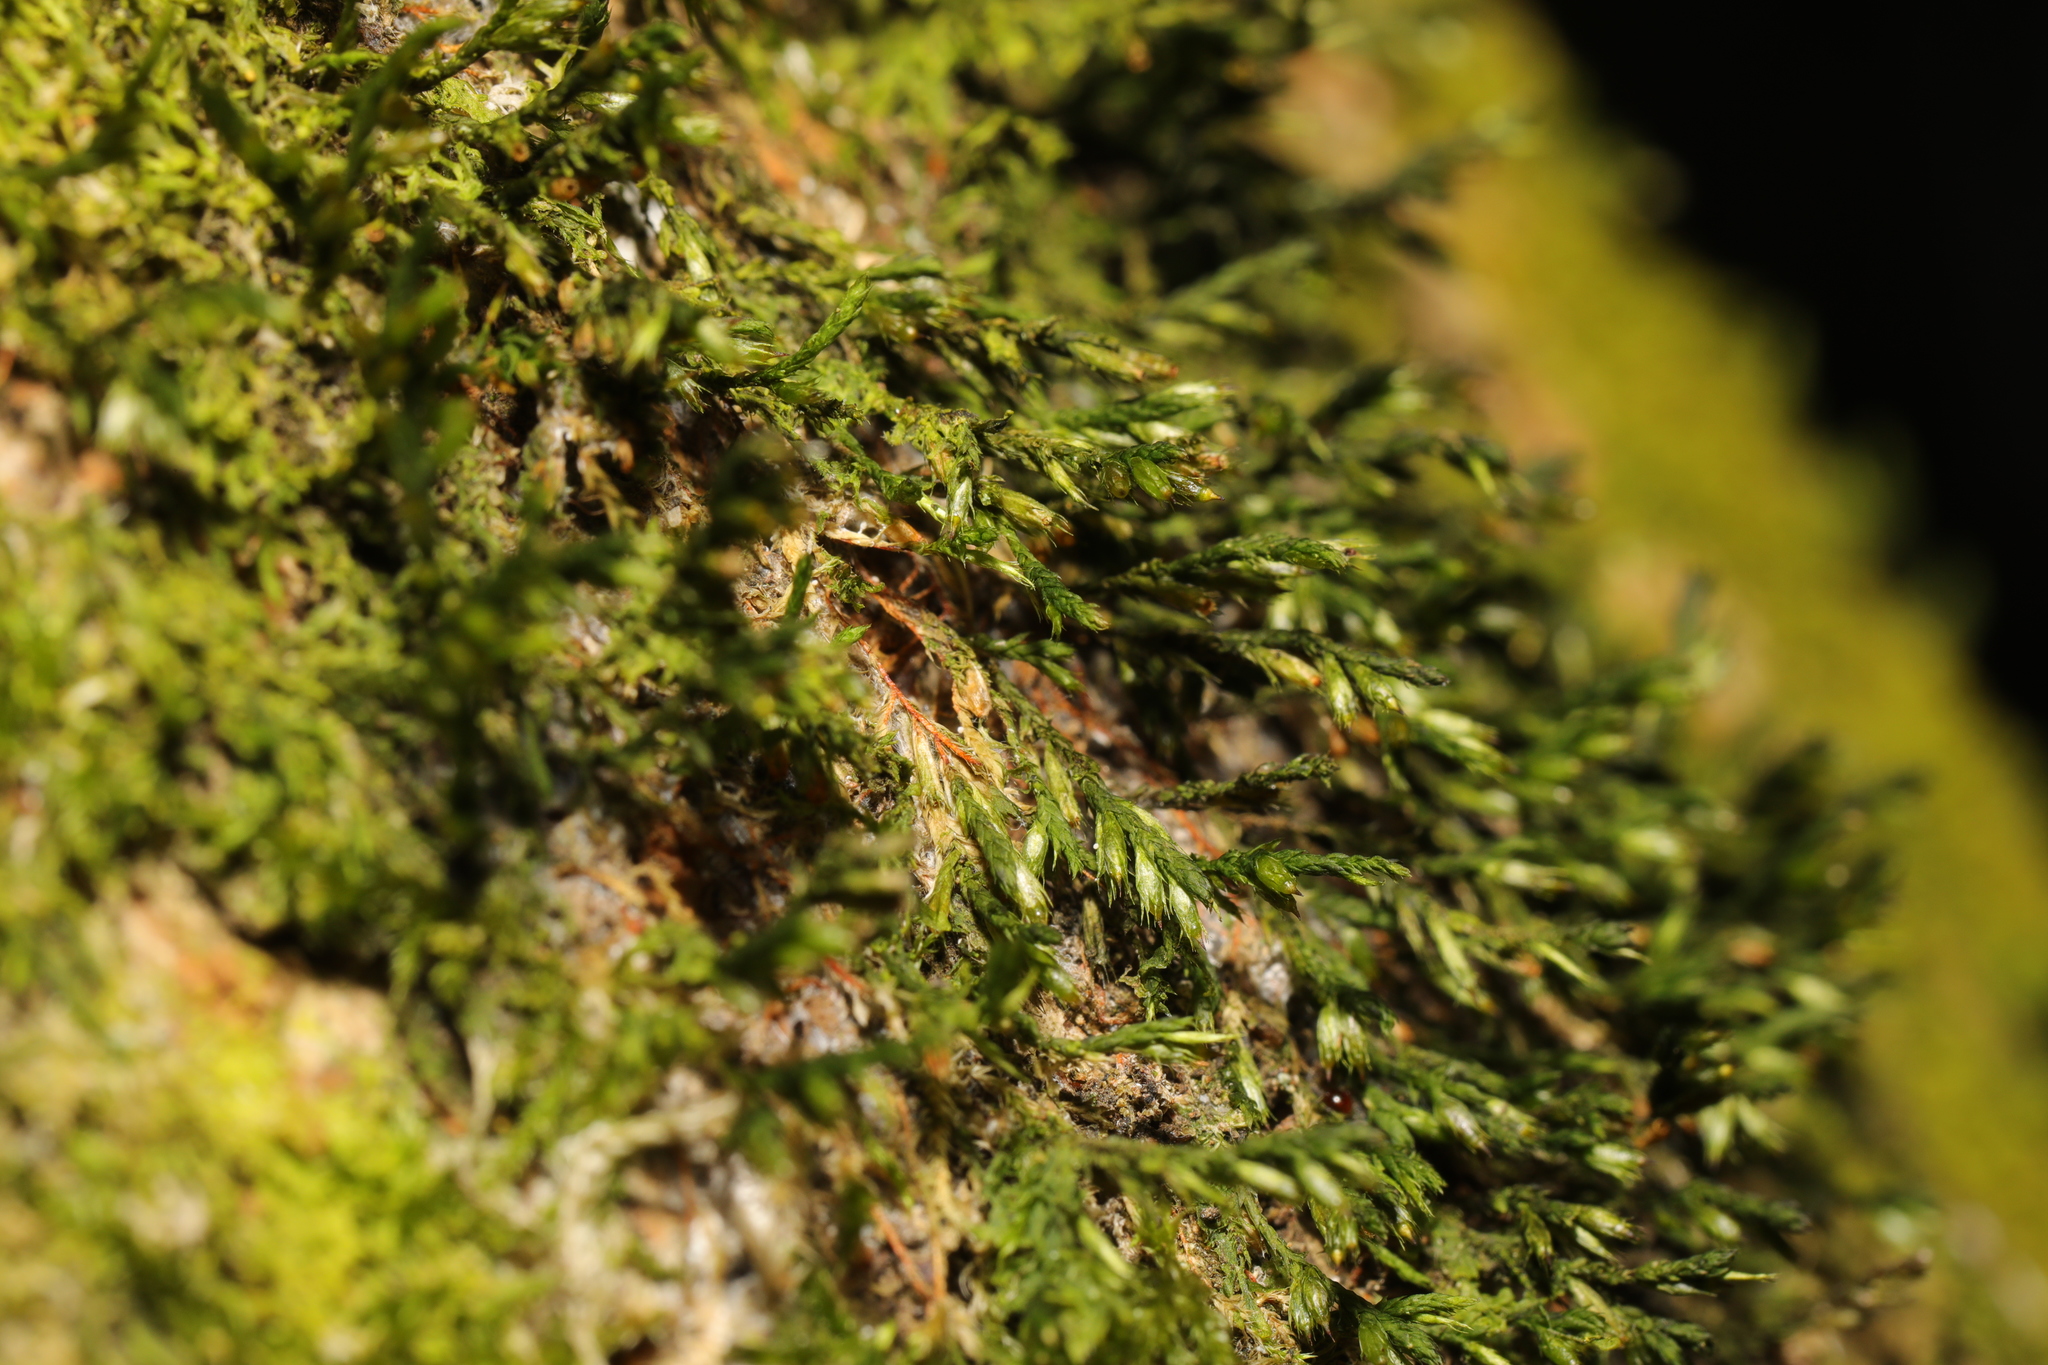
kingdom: Plantae
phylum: Bryophyta
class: Bryopsida
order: Hypnales
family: Cryphaeaceae
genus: Cryphaea
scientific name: Cryphaea heteromalla
